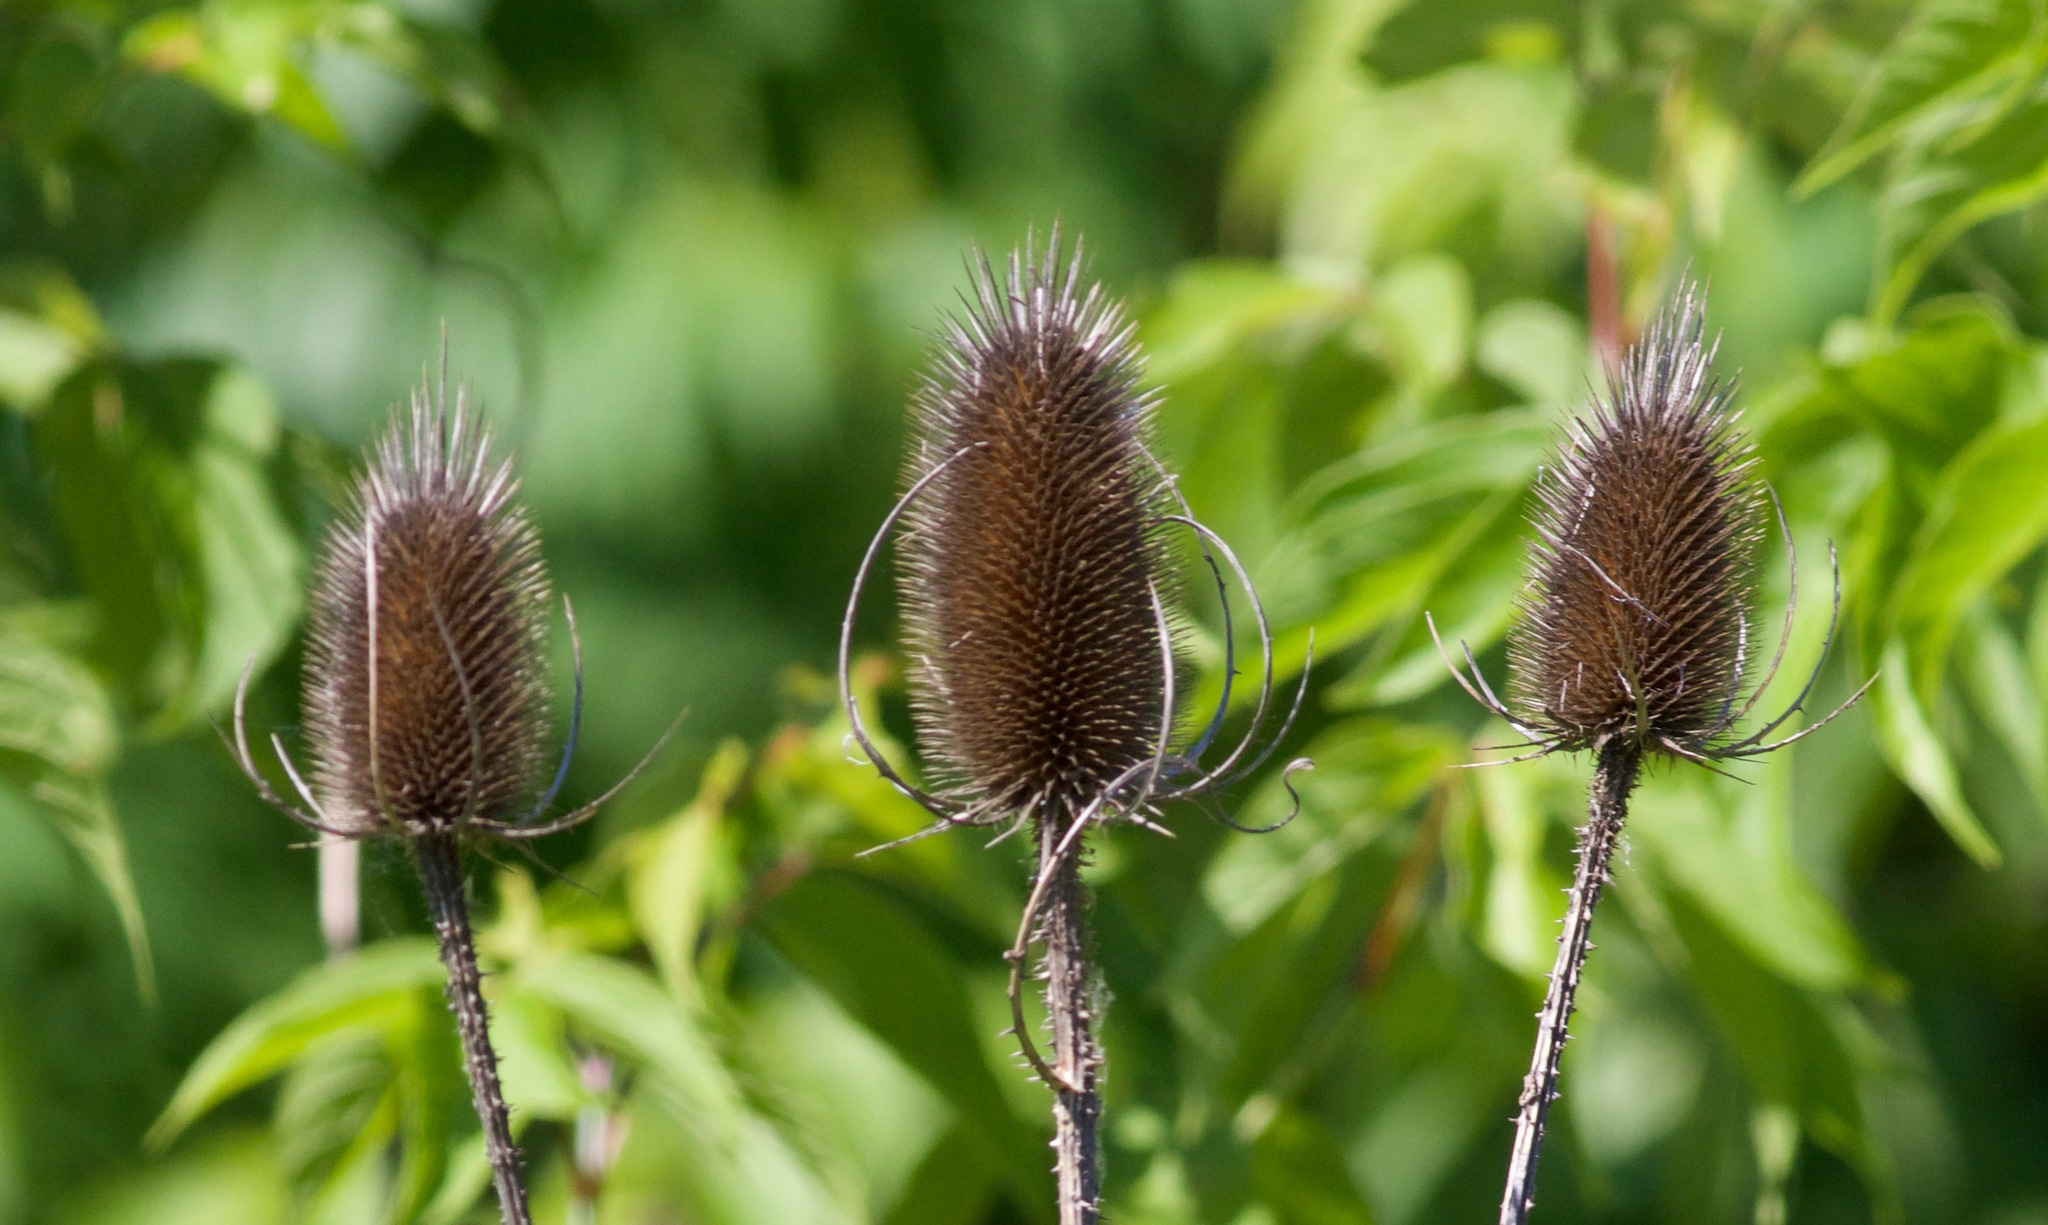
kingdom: Plantae
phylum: Tracheophyta
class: Magnoliopsida
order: Dipsacales
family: Caprifoliaceae
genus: Dipsacus
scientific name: Dipsacus fullonum
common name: Teasel
